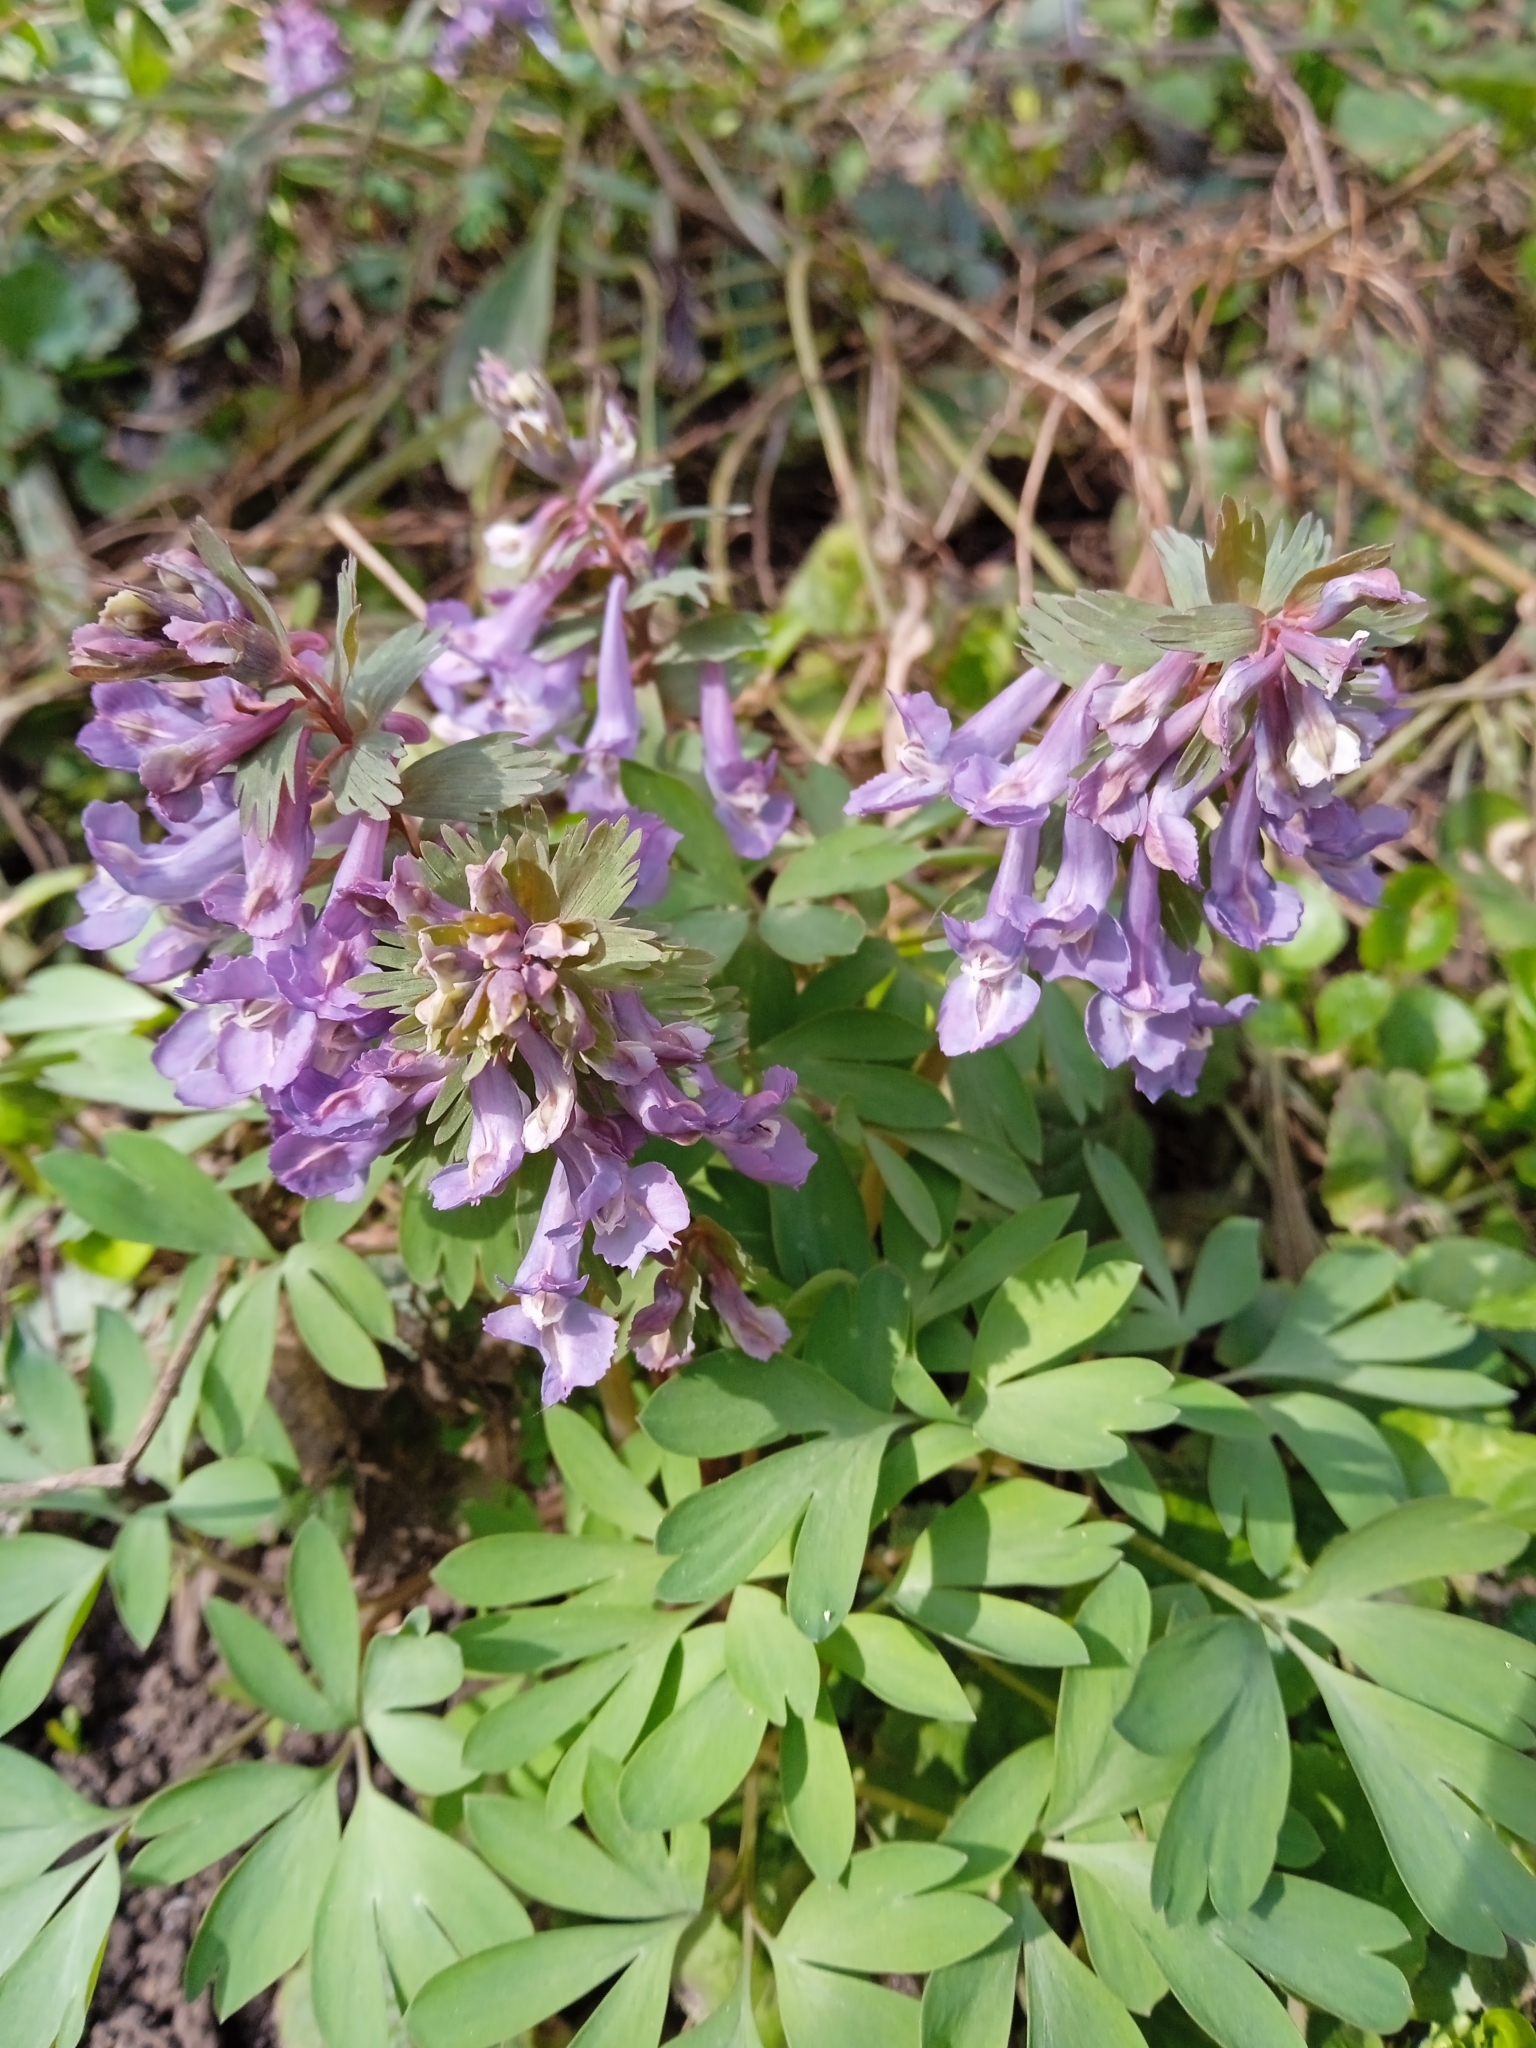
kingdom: Plantae
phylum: Tracheophyta
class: Magnoliopsida
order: Ranunculales
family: Papaveraceae
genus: Corydalis
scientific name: Corydalis solida
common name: Bird-in-a-bush
